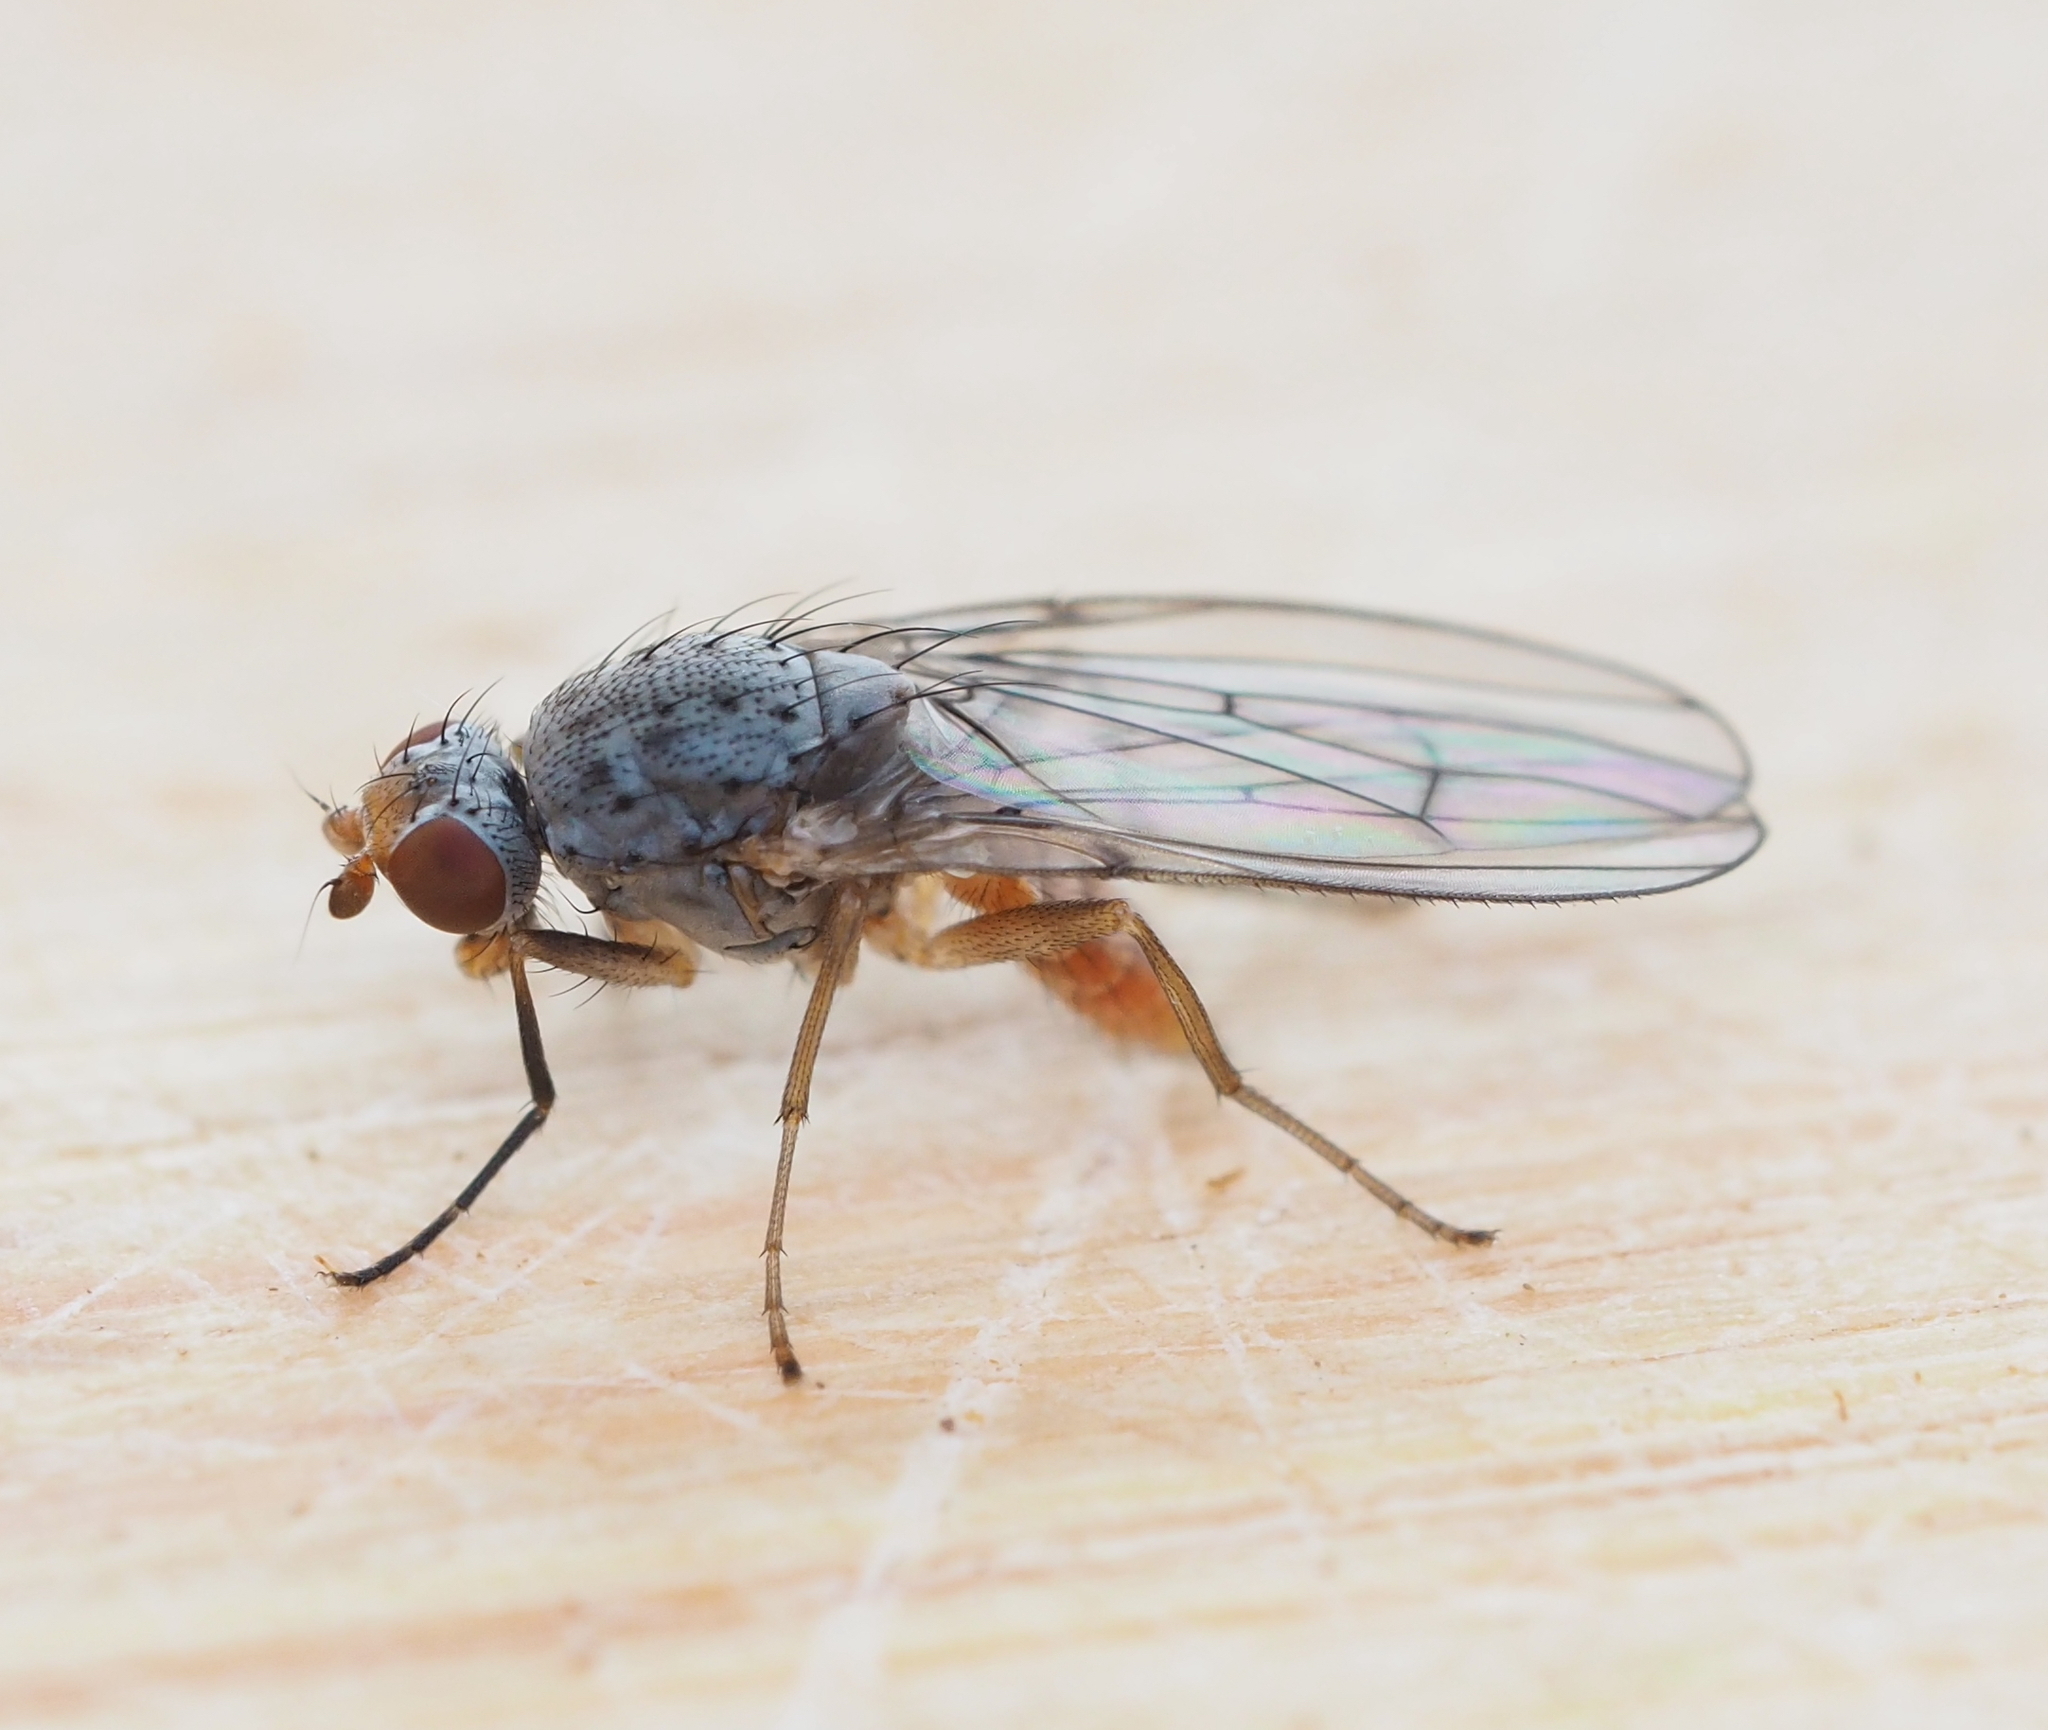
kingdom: Animalia
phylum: Arthropoda
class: Insecta
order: Diptera
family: Heleomyzidae
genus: Tephrochlamys
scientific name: Tephrochlamys tarsalis
